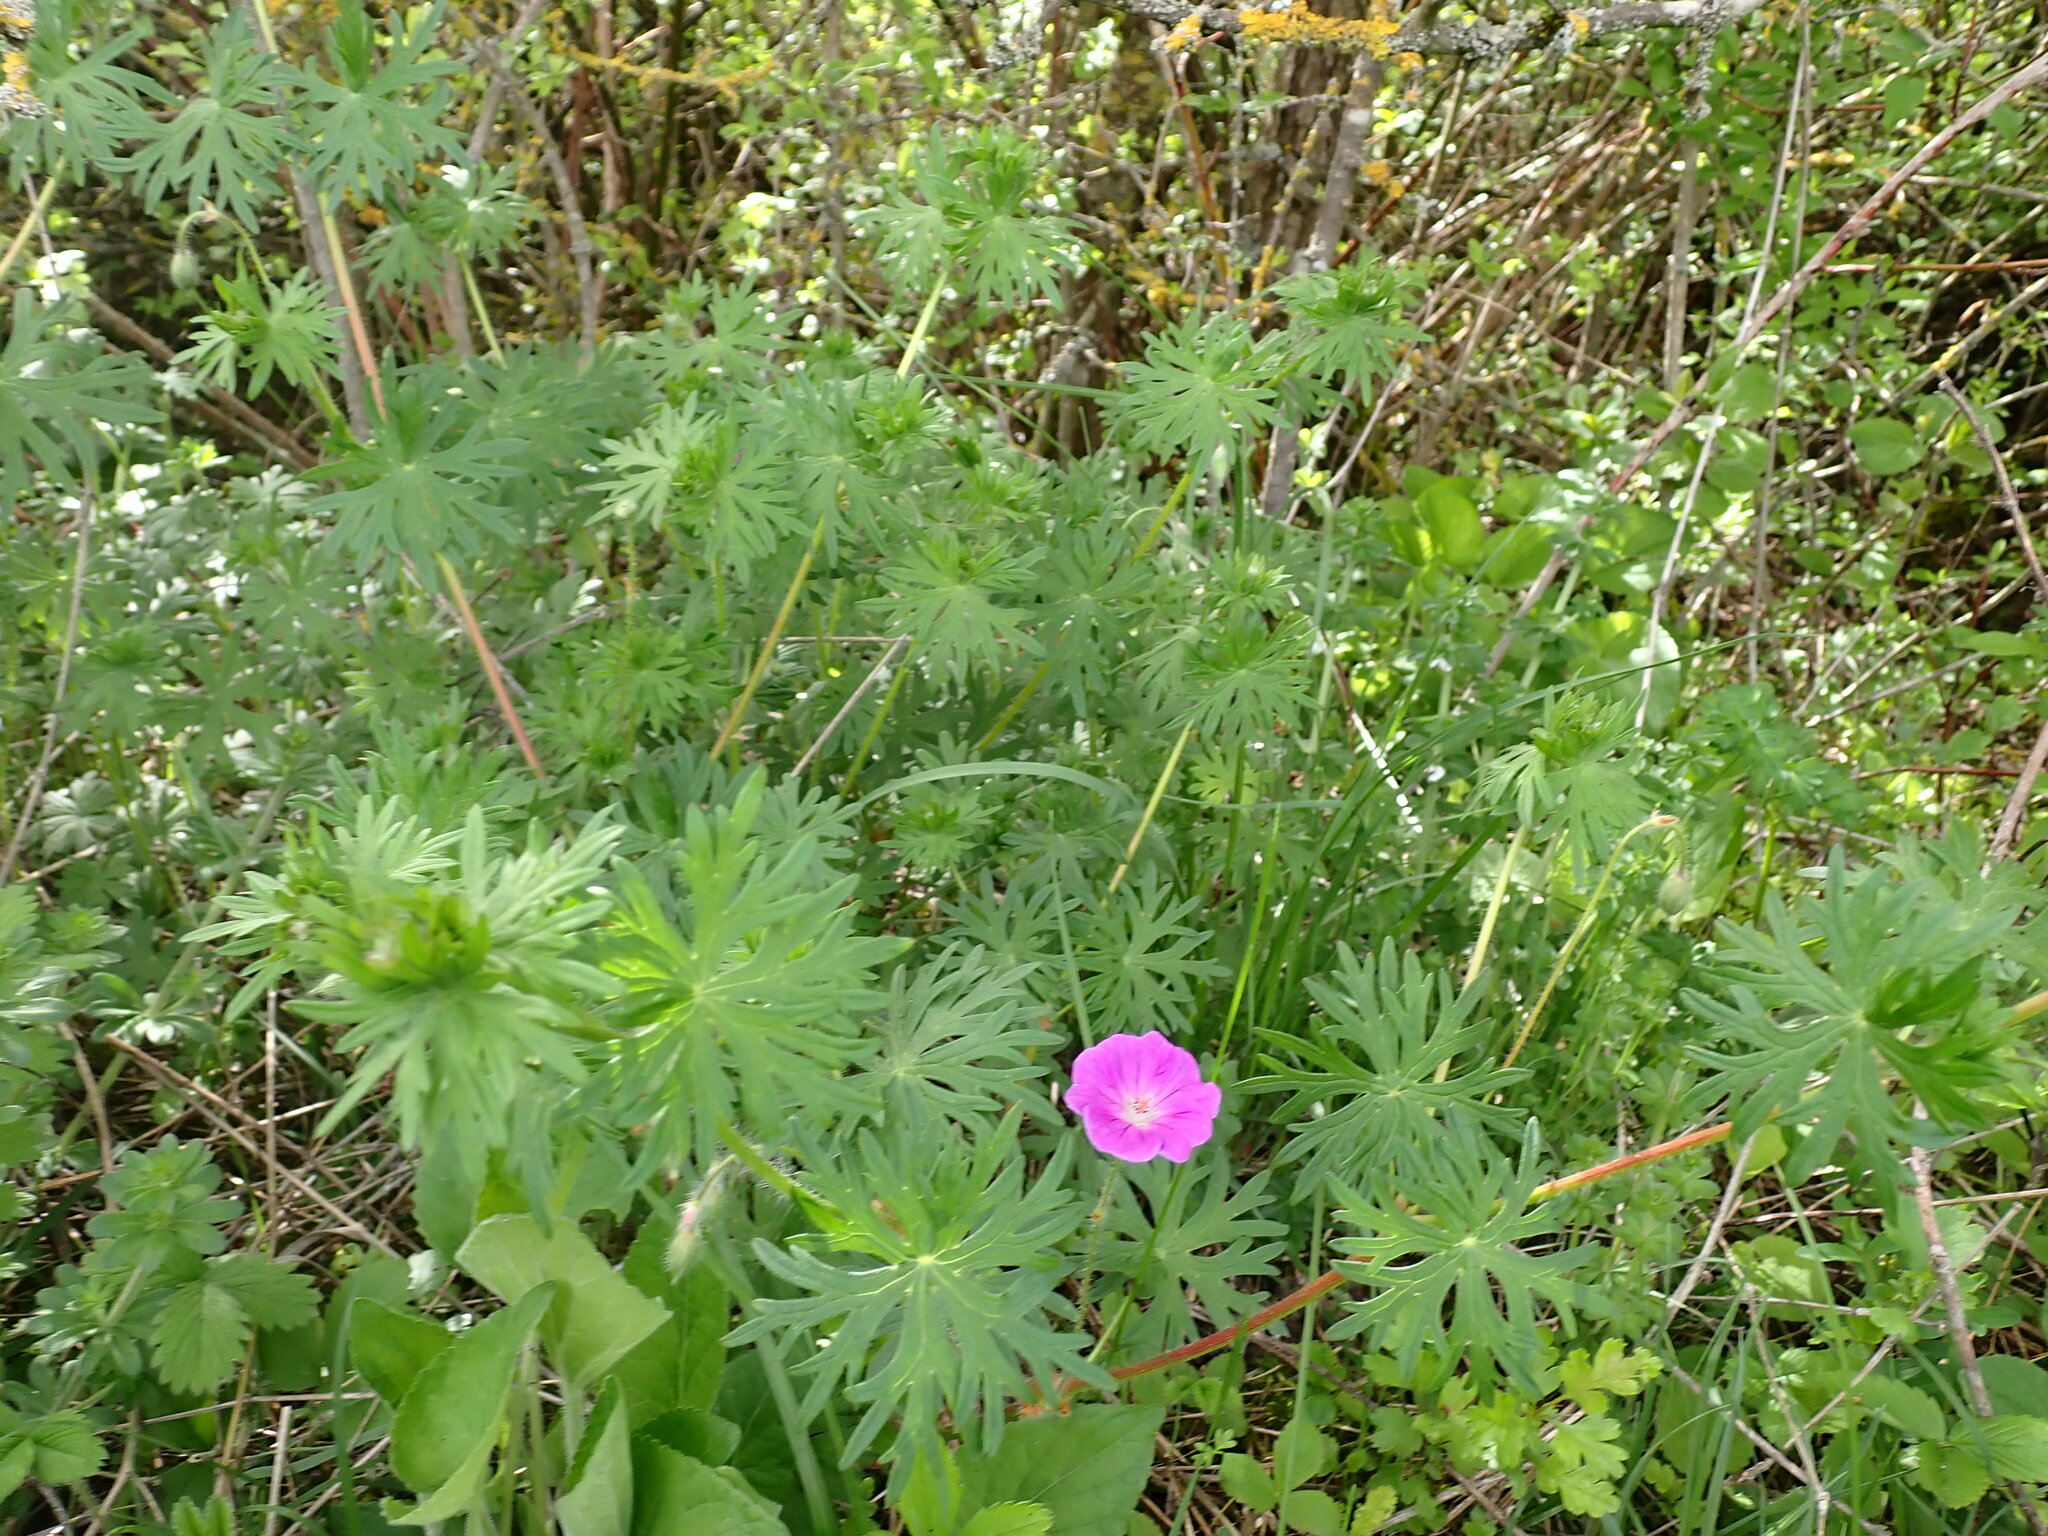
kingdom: Plantae
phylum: Tracheophyta
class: Magnoliopsida
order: Geraniales
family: Geraniaceae
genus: Geranium
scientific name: Geranium sanguineum
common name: Bloody crane's-bill
